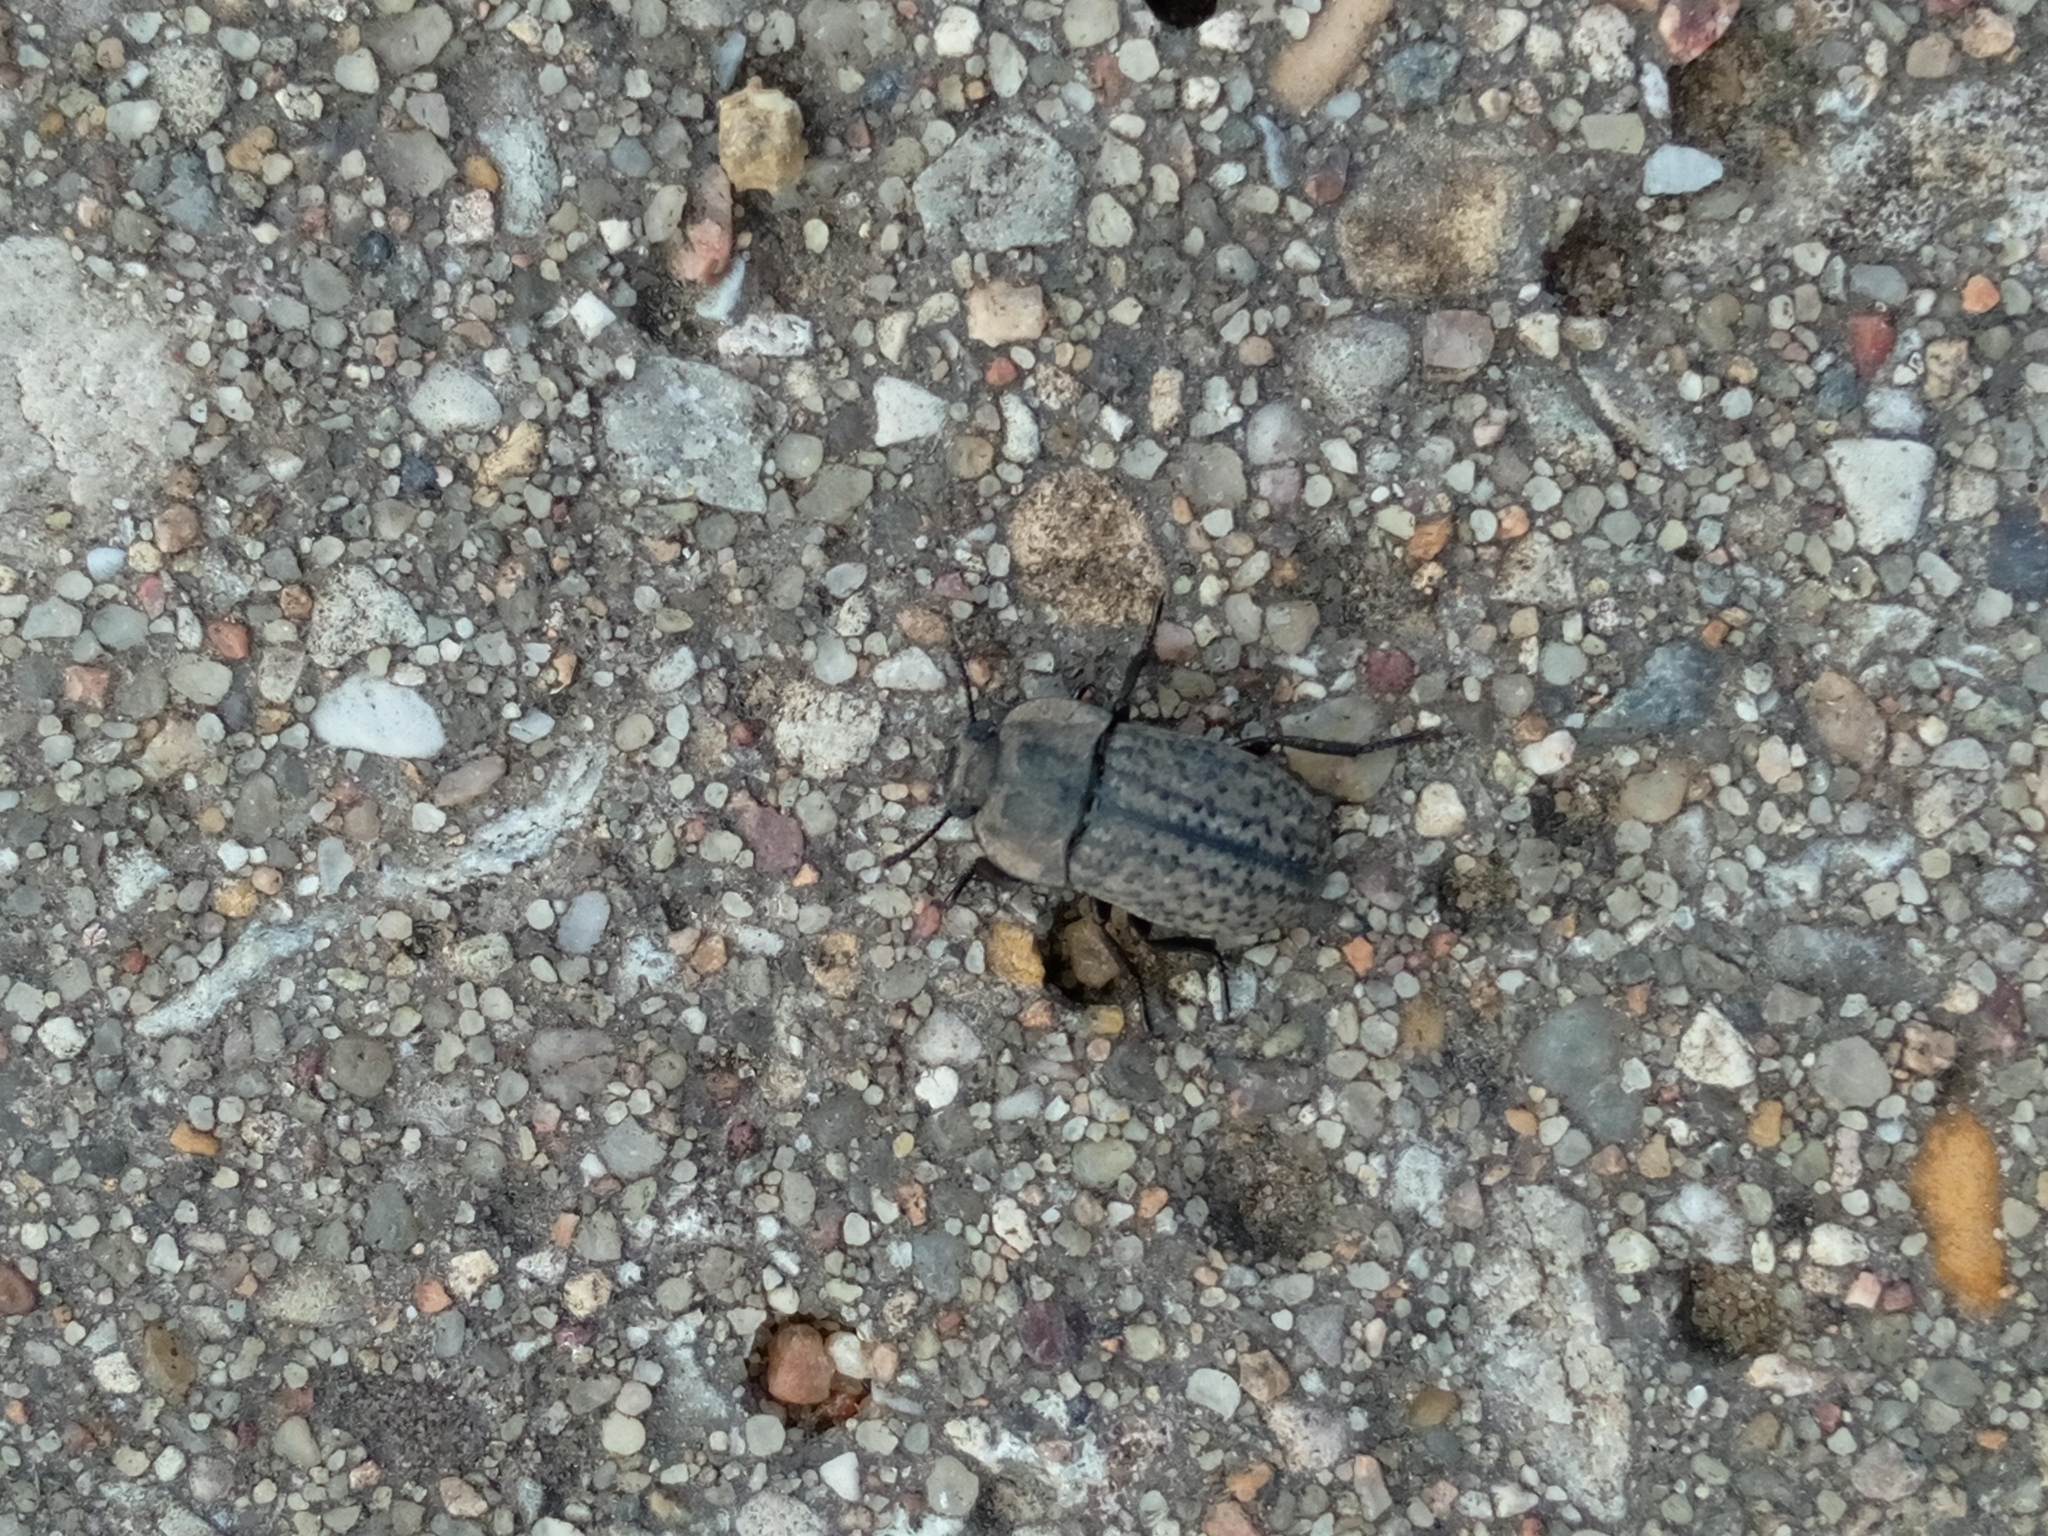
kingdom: Animalia
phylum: Arthropoda
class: Insecta
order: Coleoptera
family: Tenebrionidae
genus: Opatrum
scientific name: Opatrum riparium
